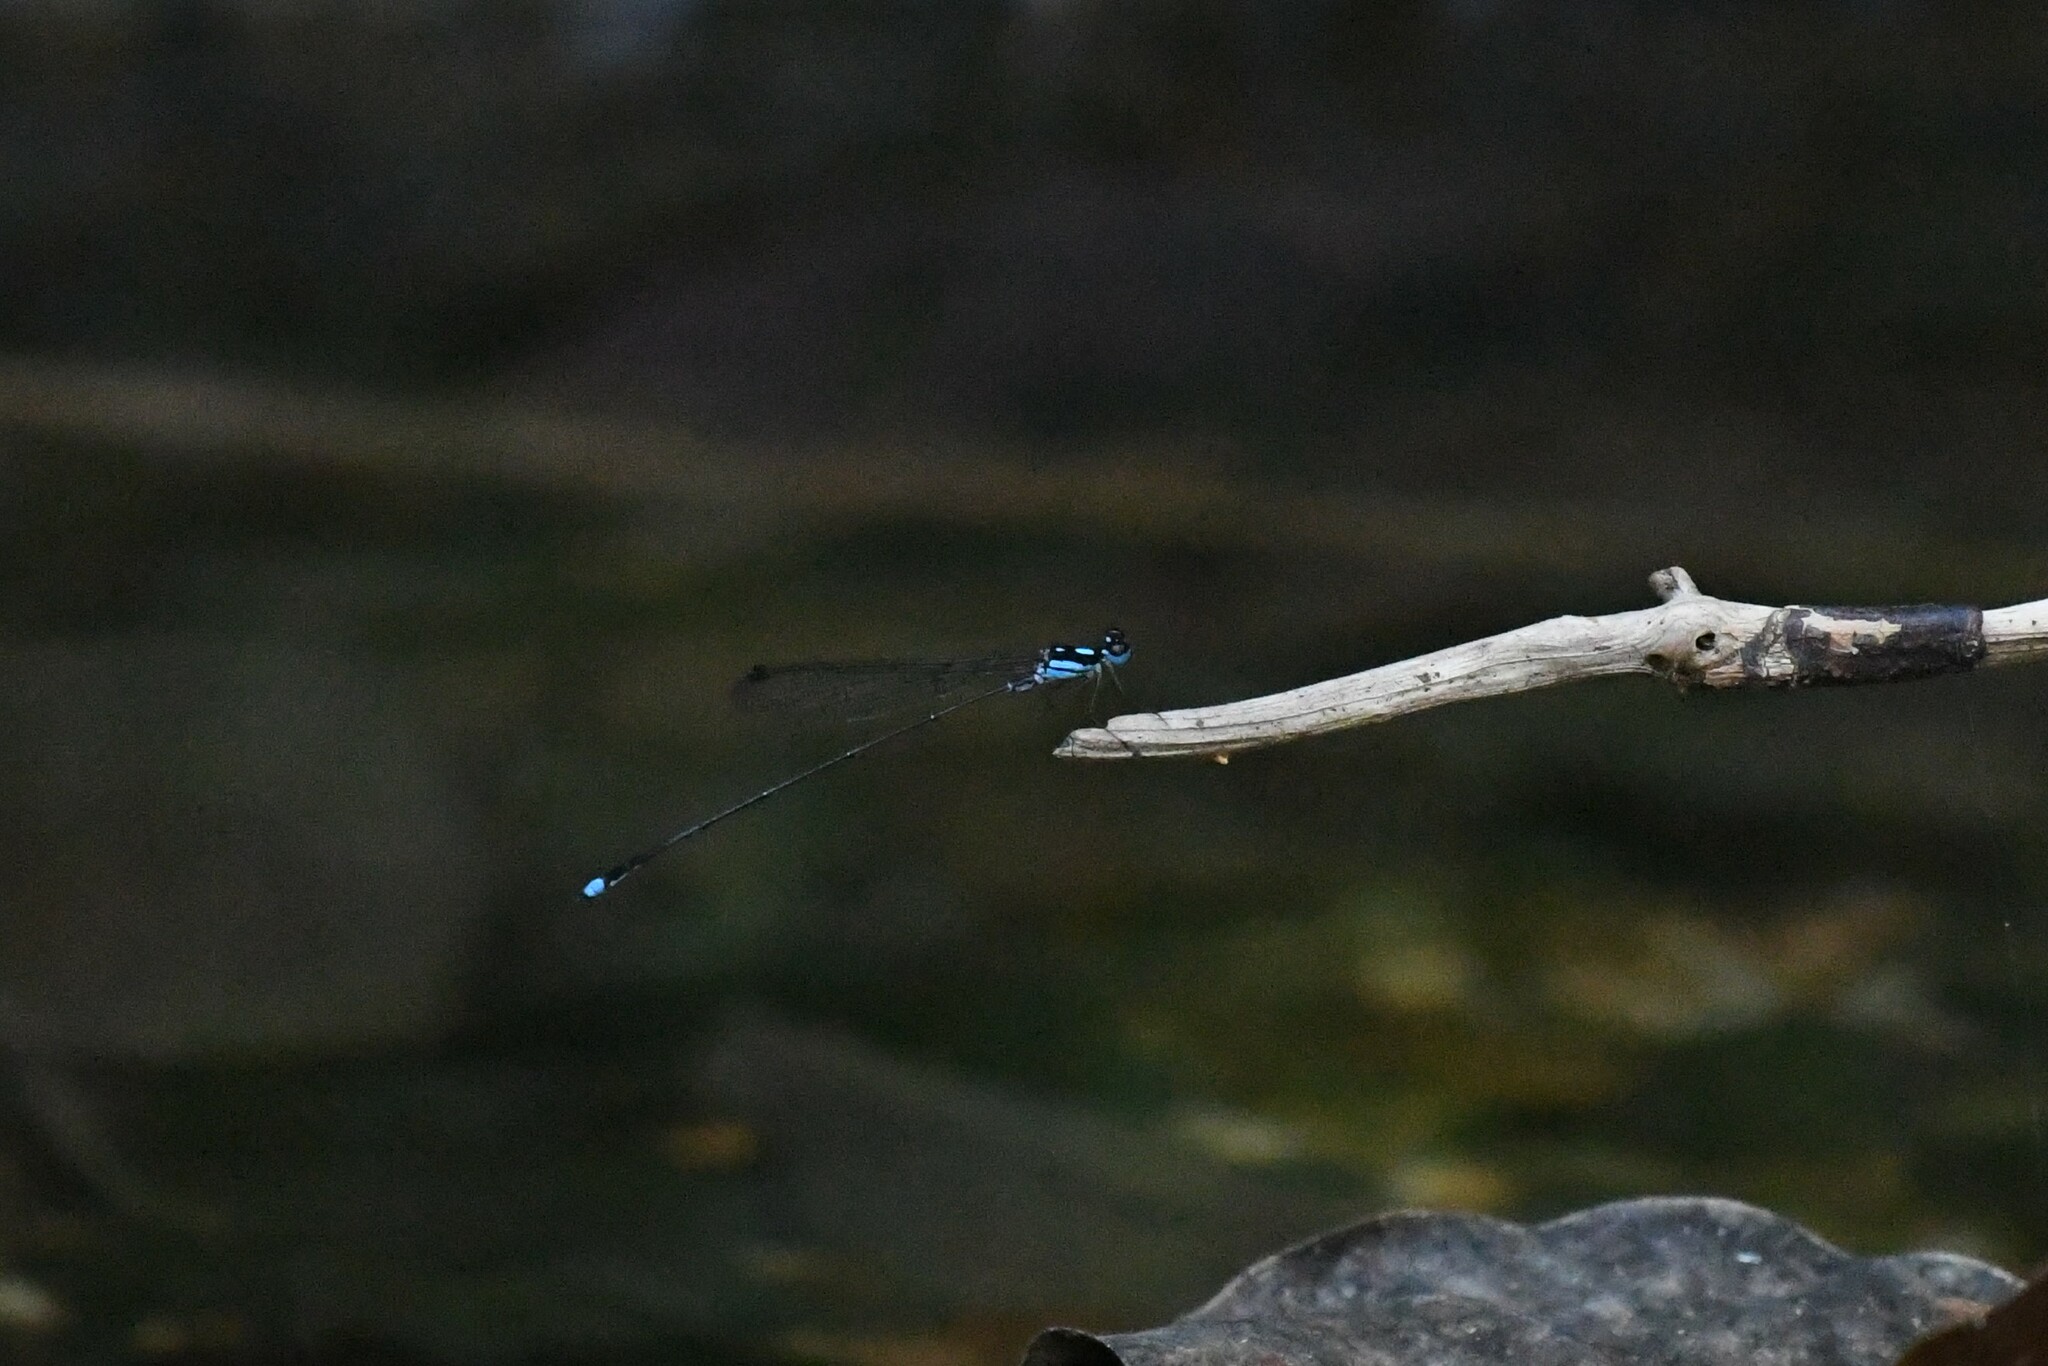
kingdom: Animalia
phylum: Arthropoda
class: Insecta
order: Odonata
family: Platycnemididae
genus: Coeliccia
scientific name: Coeliccia didyma
